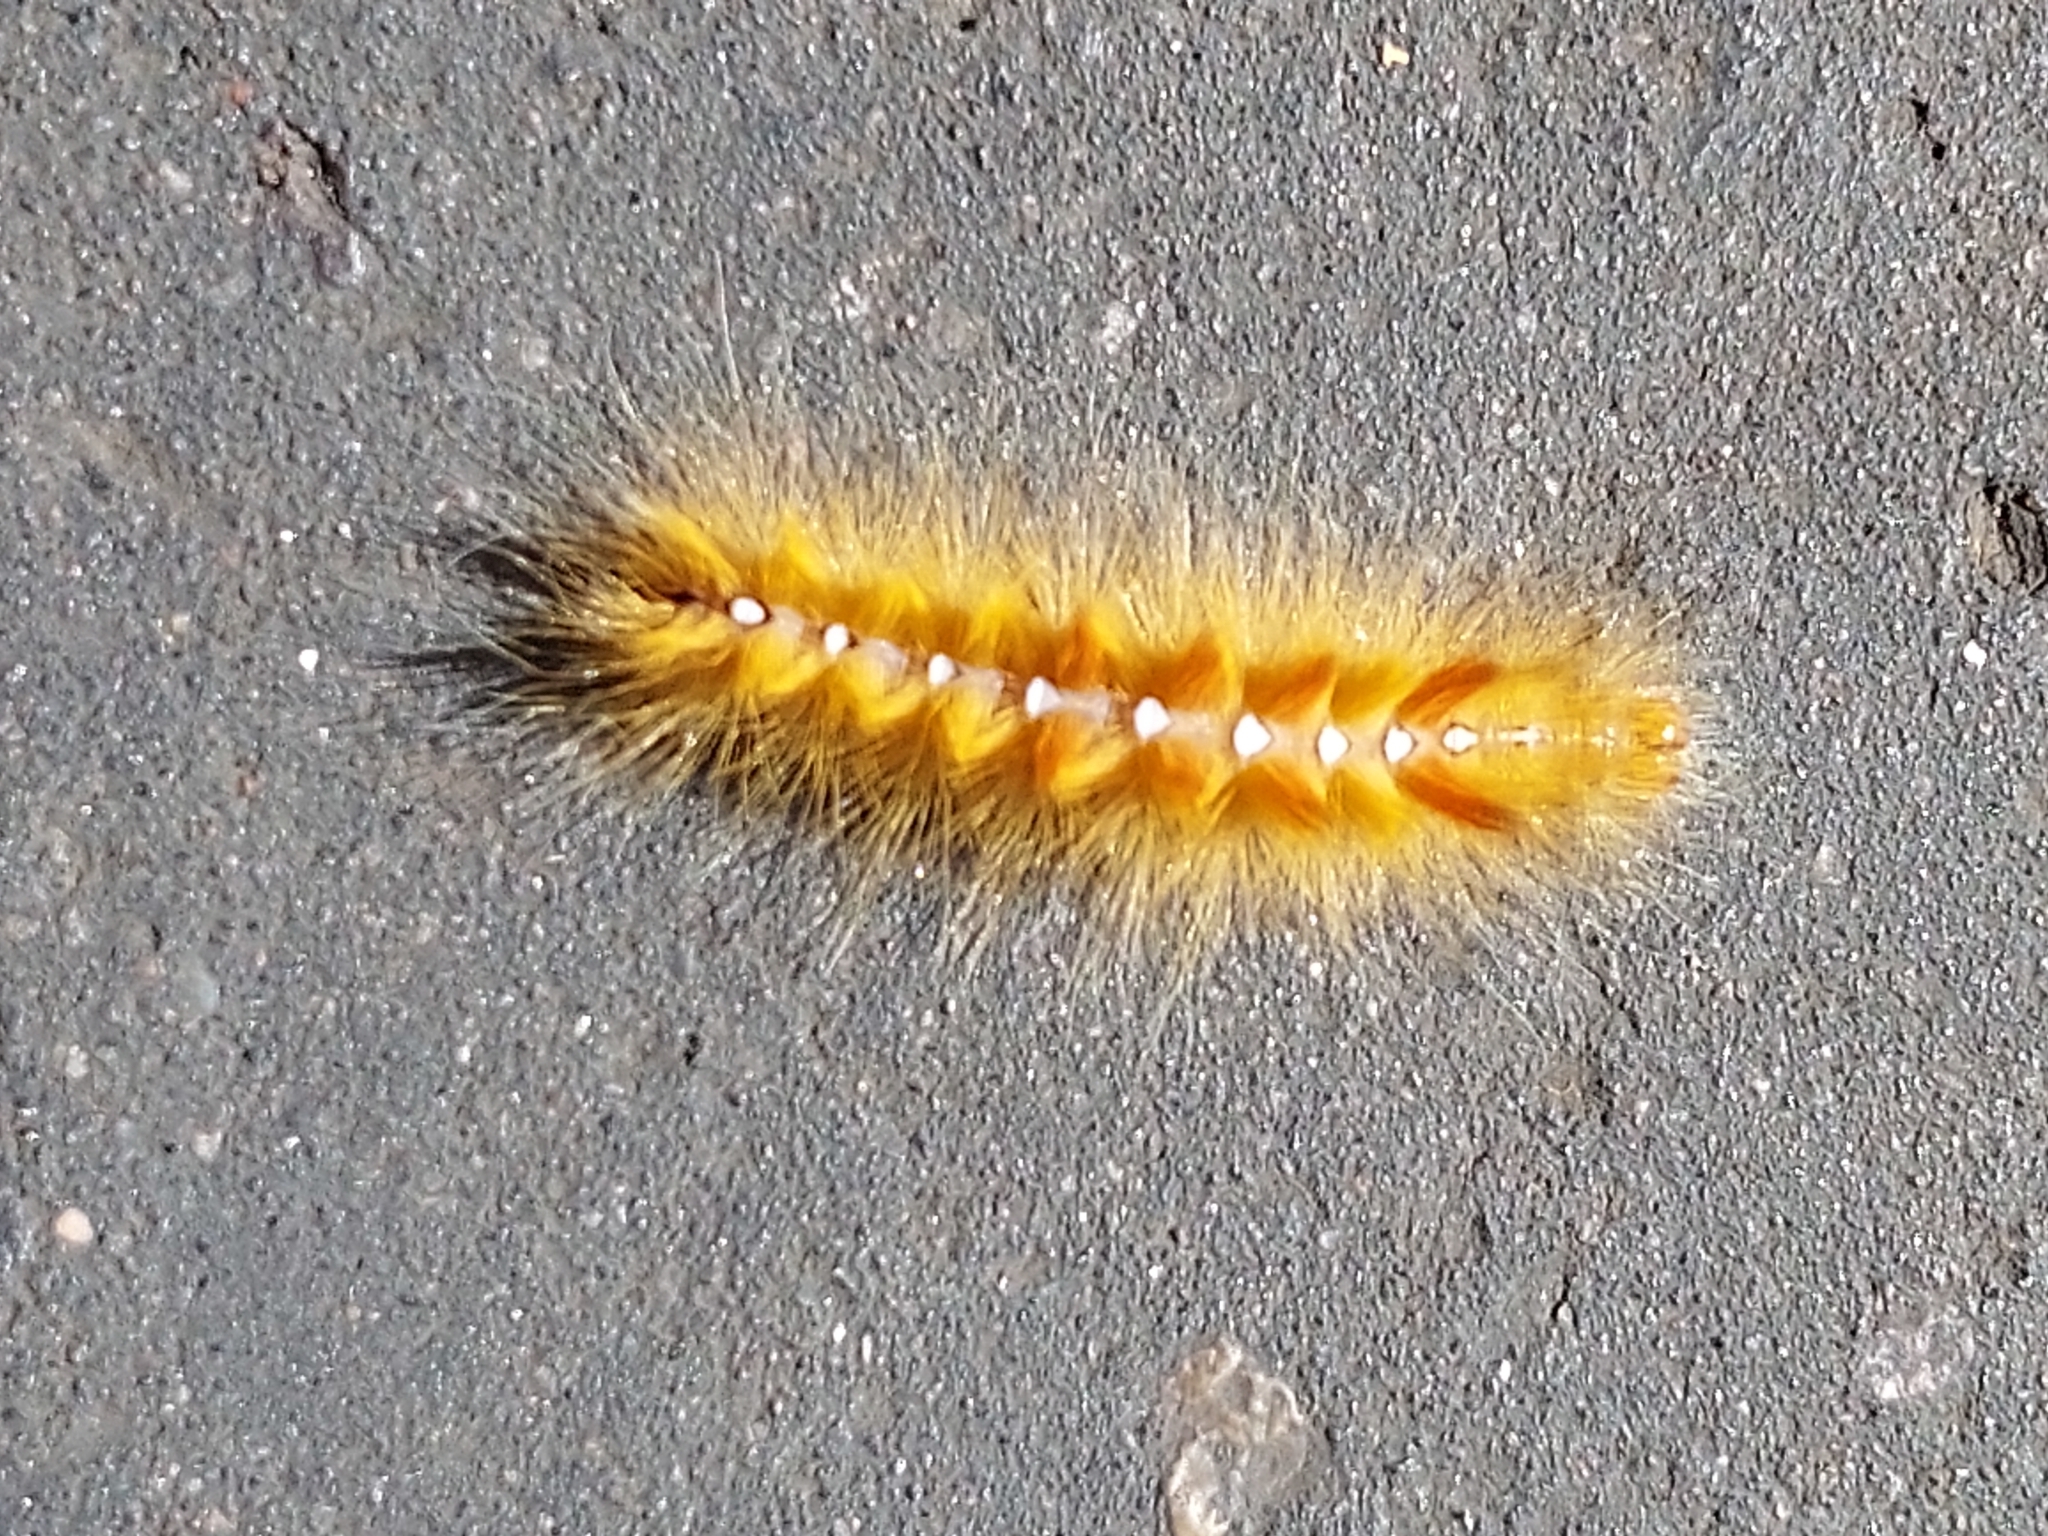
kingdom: Animalia
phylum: Arthropoda
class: Insecta
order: Lepidoptera
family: Noctuidae
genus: Acronicta
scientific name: Acronicta aceris
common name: Sycamore
